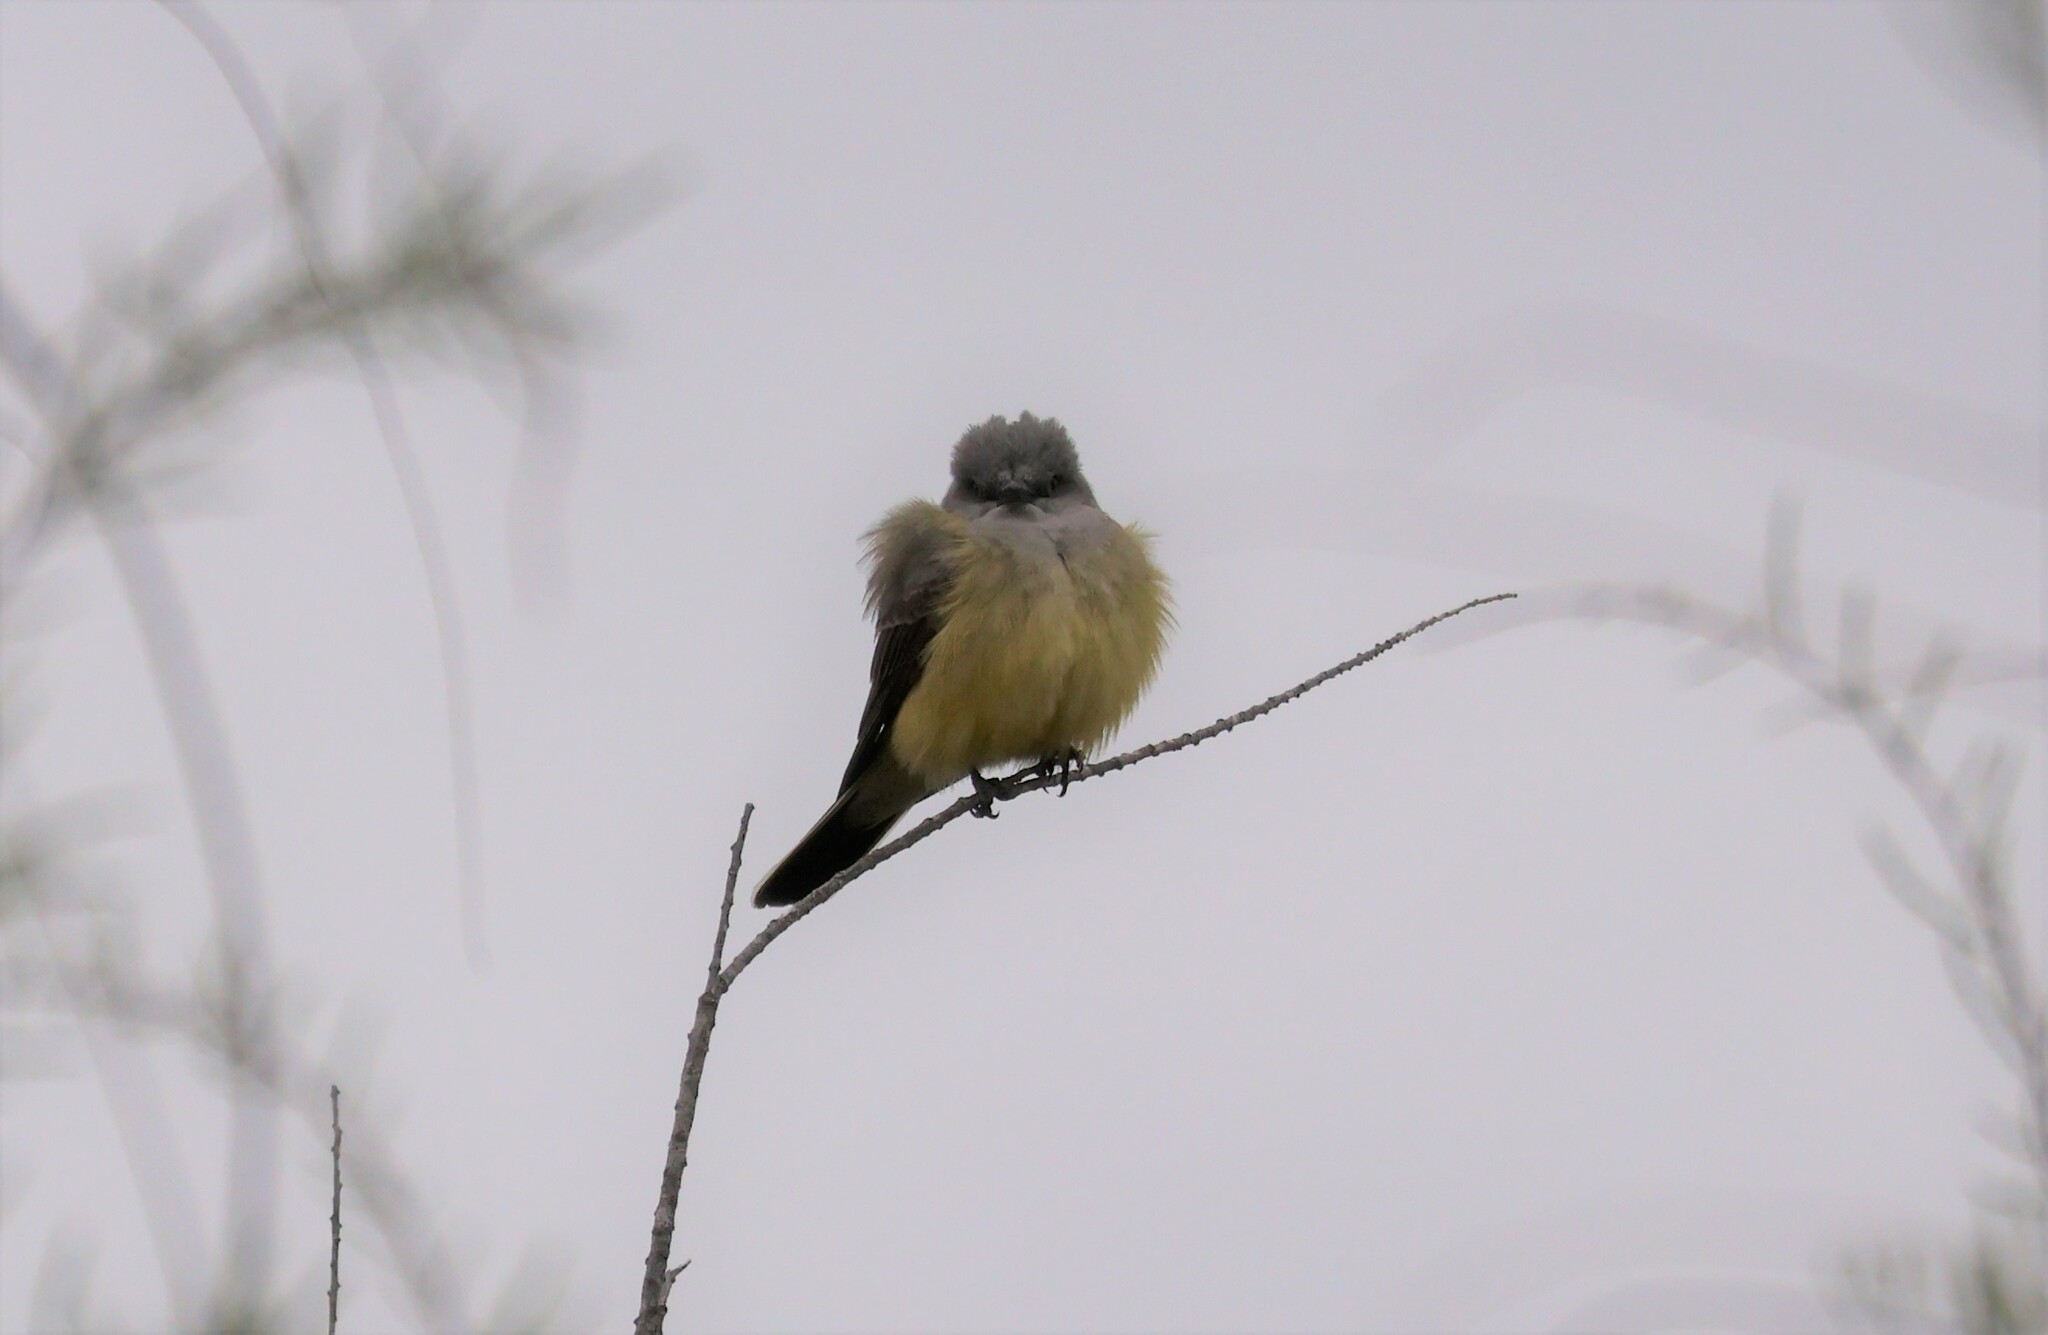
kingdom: Animalia
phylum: Chordata
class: Aves
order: Passeriformes
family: Tyrannidae
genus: Tyrannus
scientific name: Tyrannus verticalis
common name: Western kingbird
